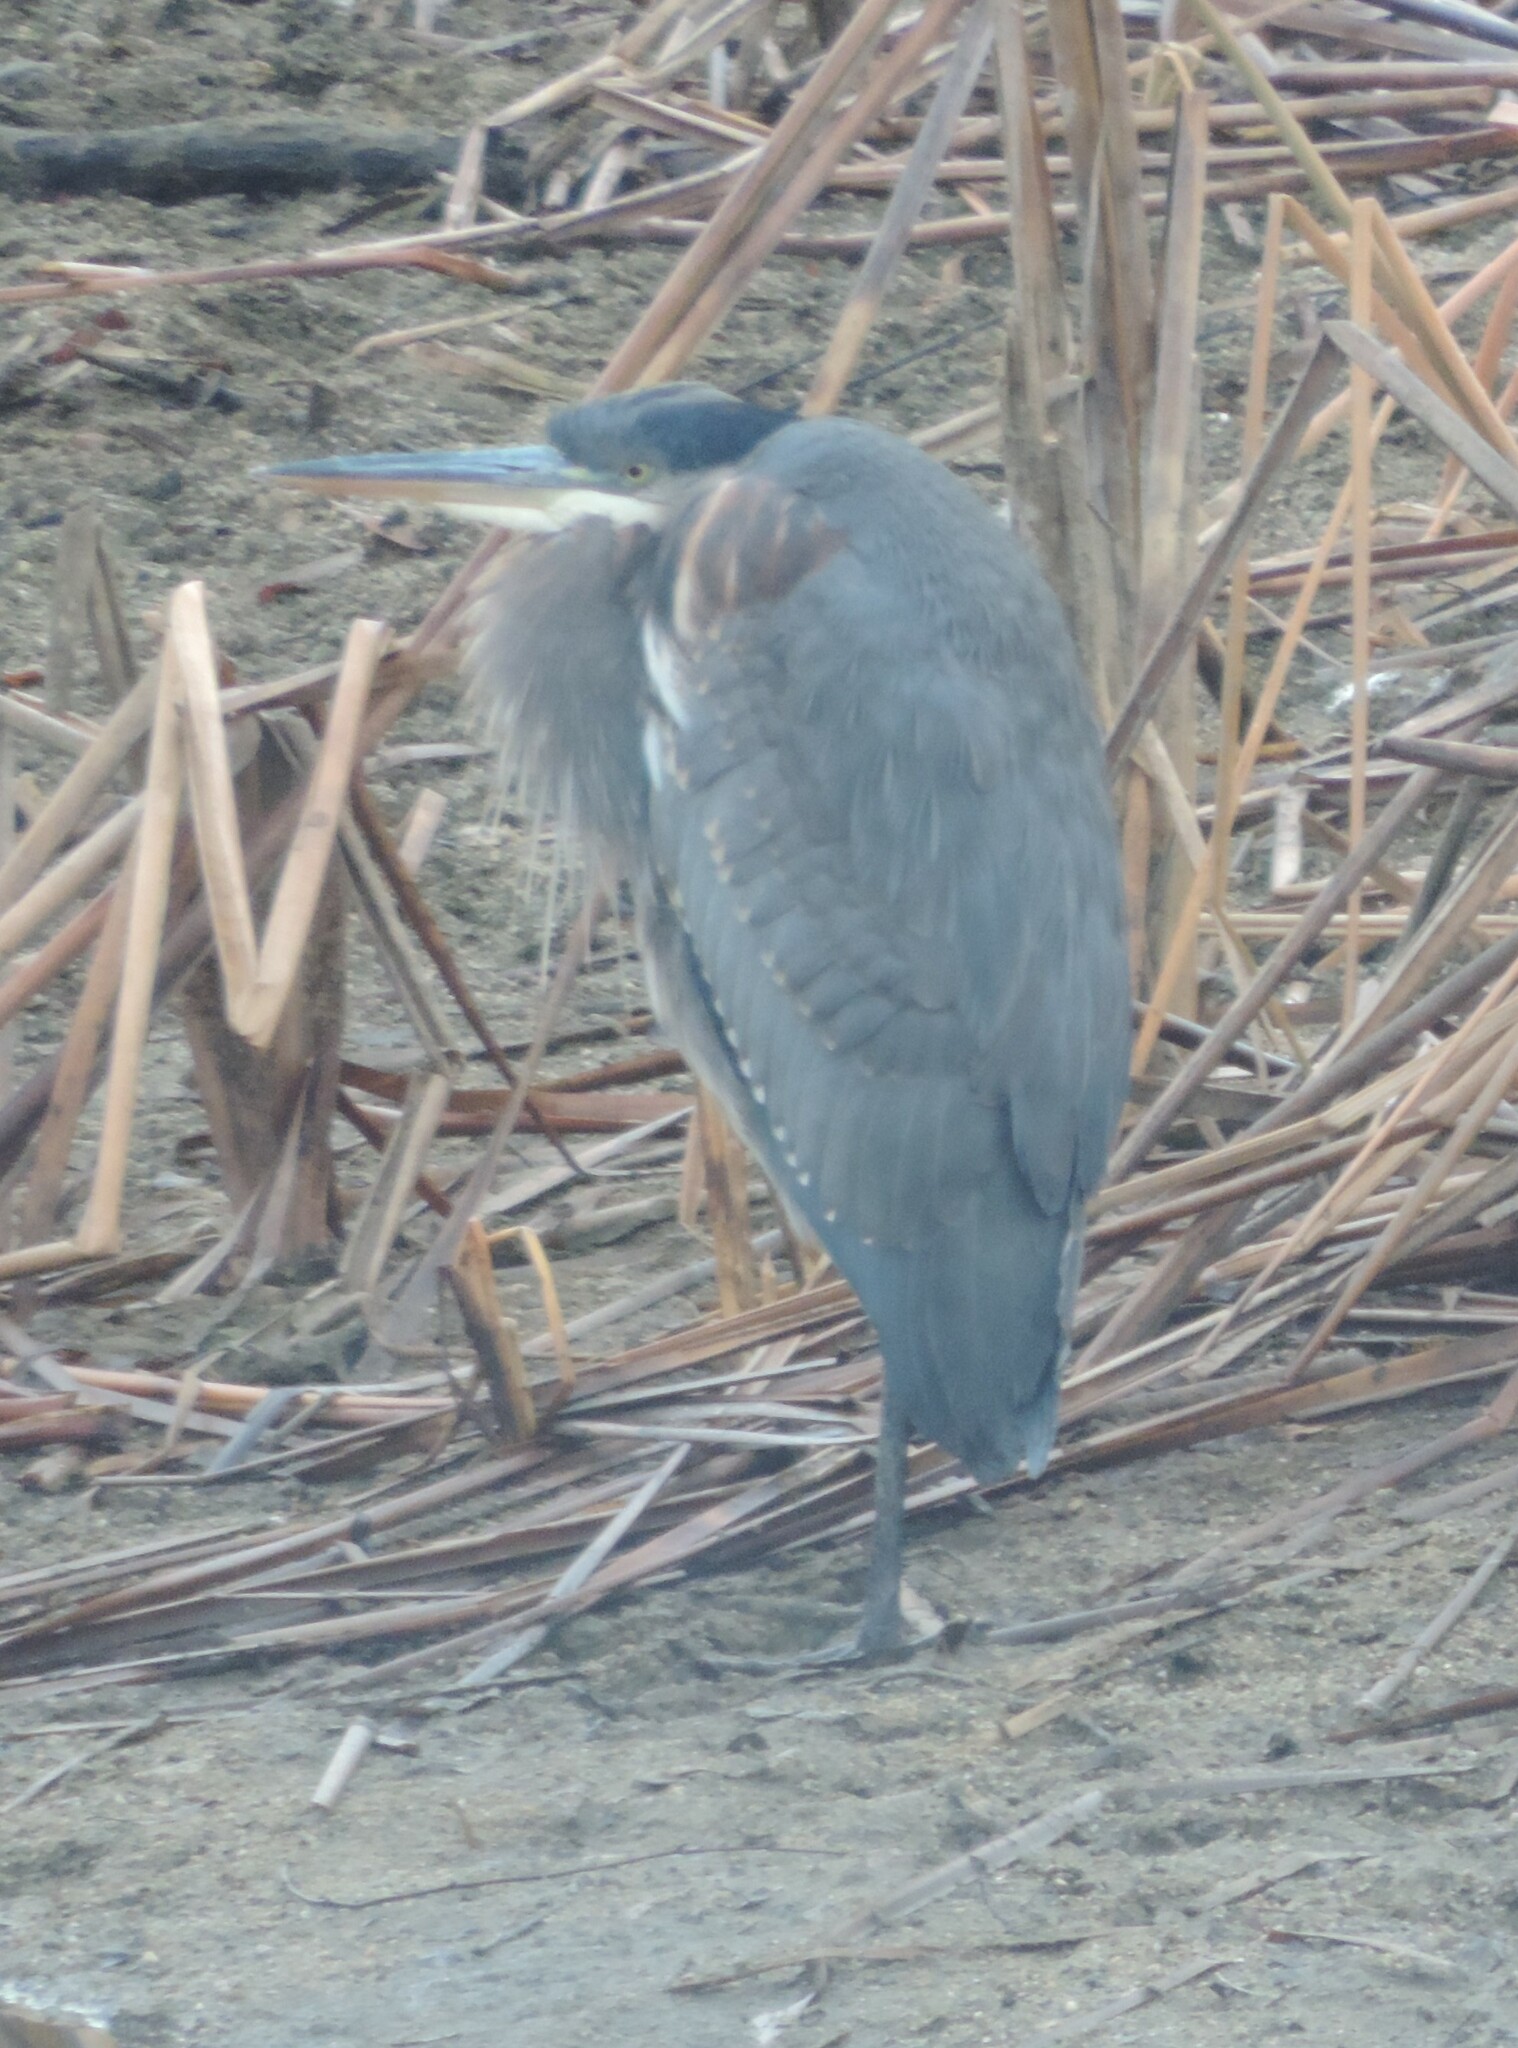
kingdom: Animalia
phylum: Chordata
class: Aves
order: Pelecaniformes
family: Ardeidae
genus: Ardea
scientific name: Ardea herodias
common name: Great blue heron
